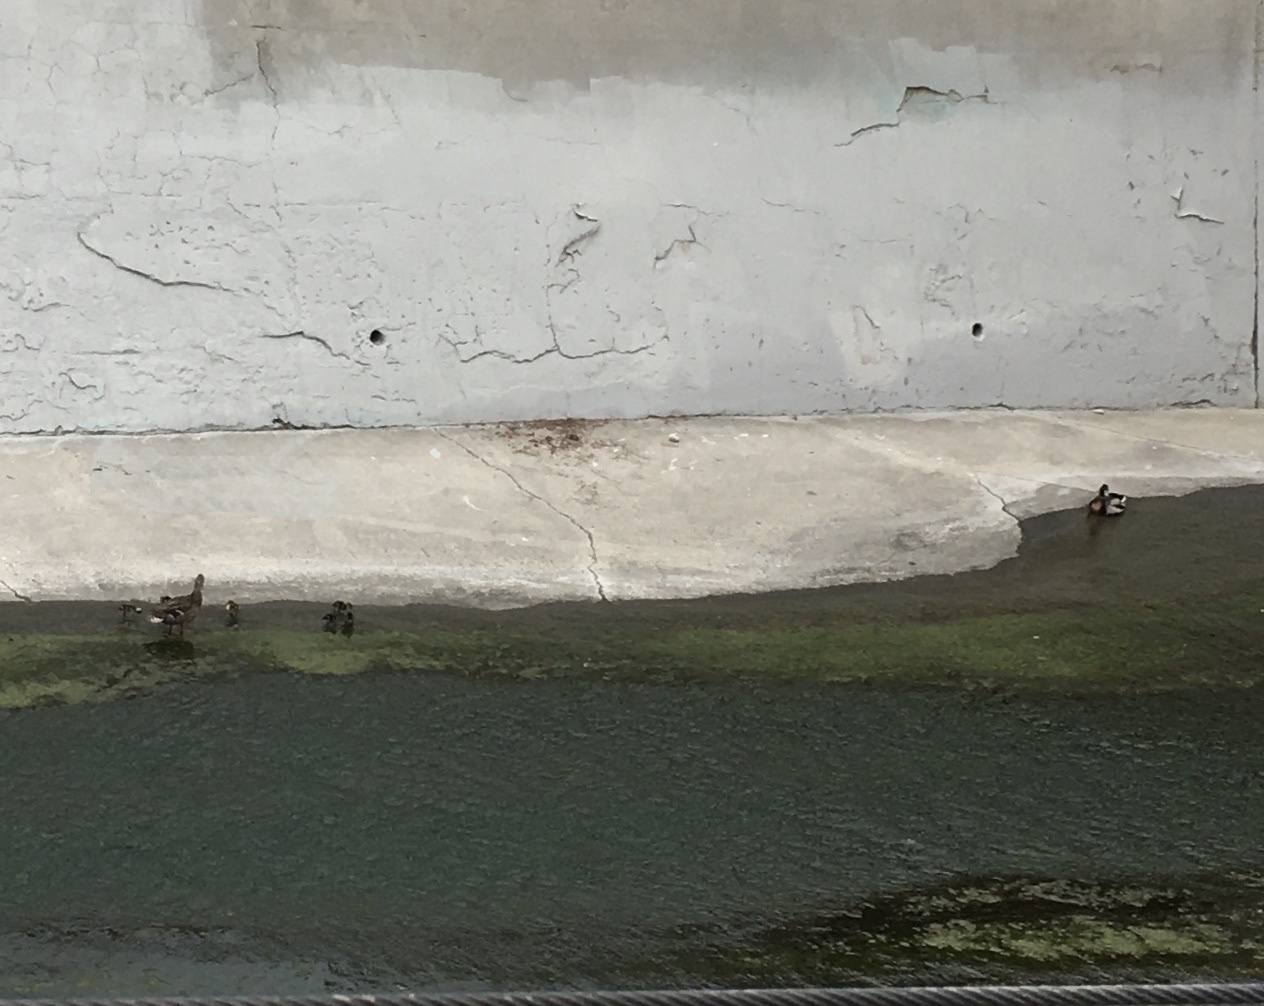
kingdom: Animalia
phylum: Chordata
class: Aves
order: Anseriformes
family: Anatidae
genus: Anas
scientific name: Anas platyrhynchos
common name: Mallard
